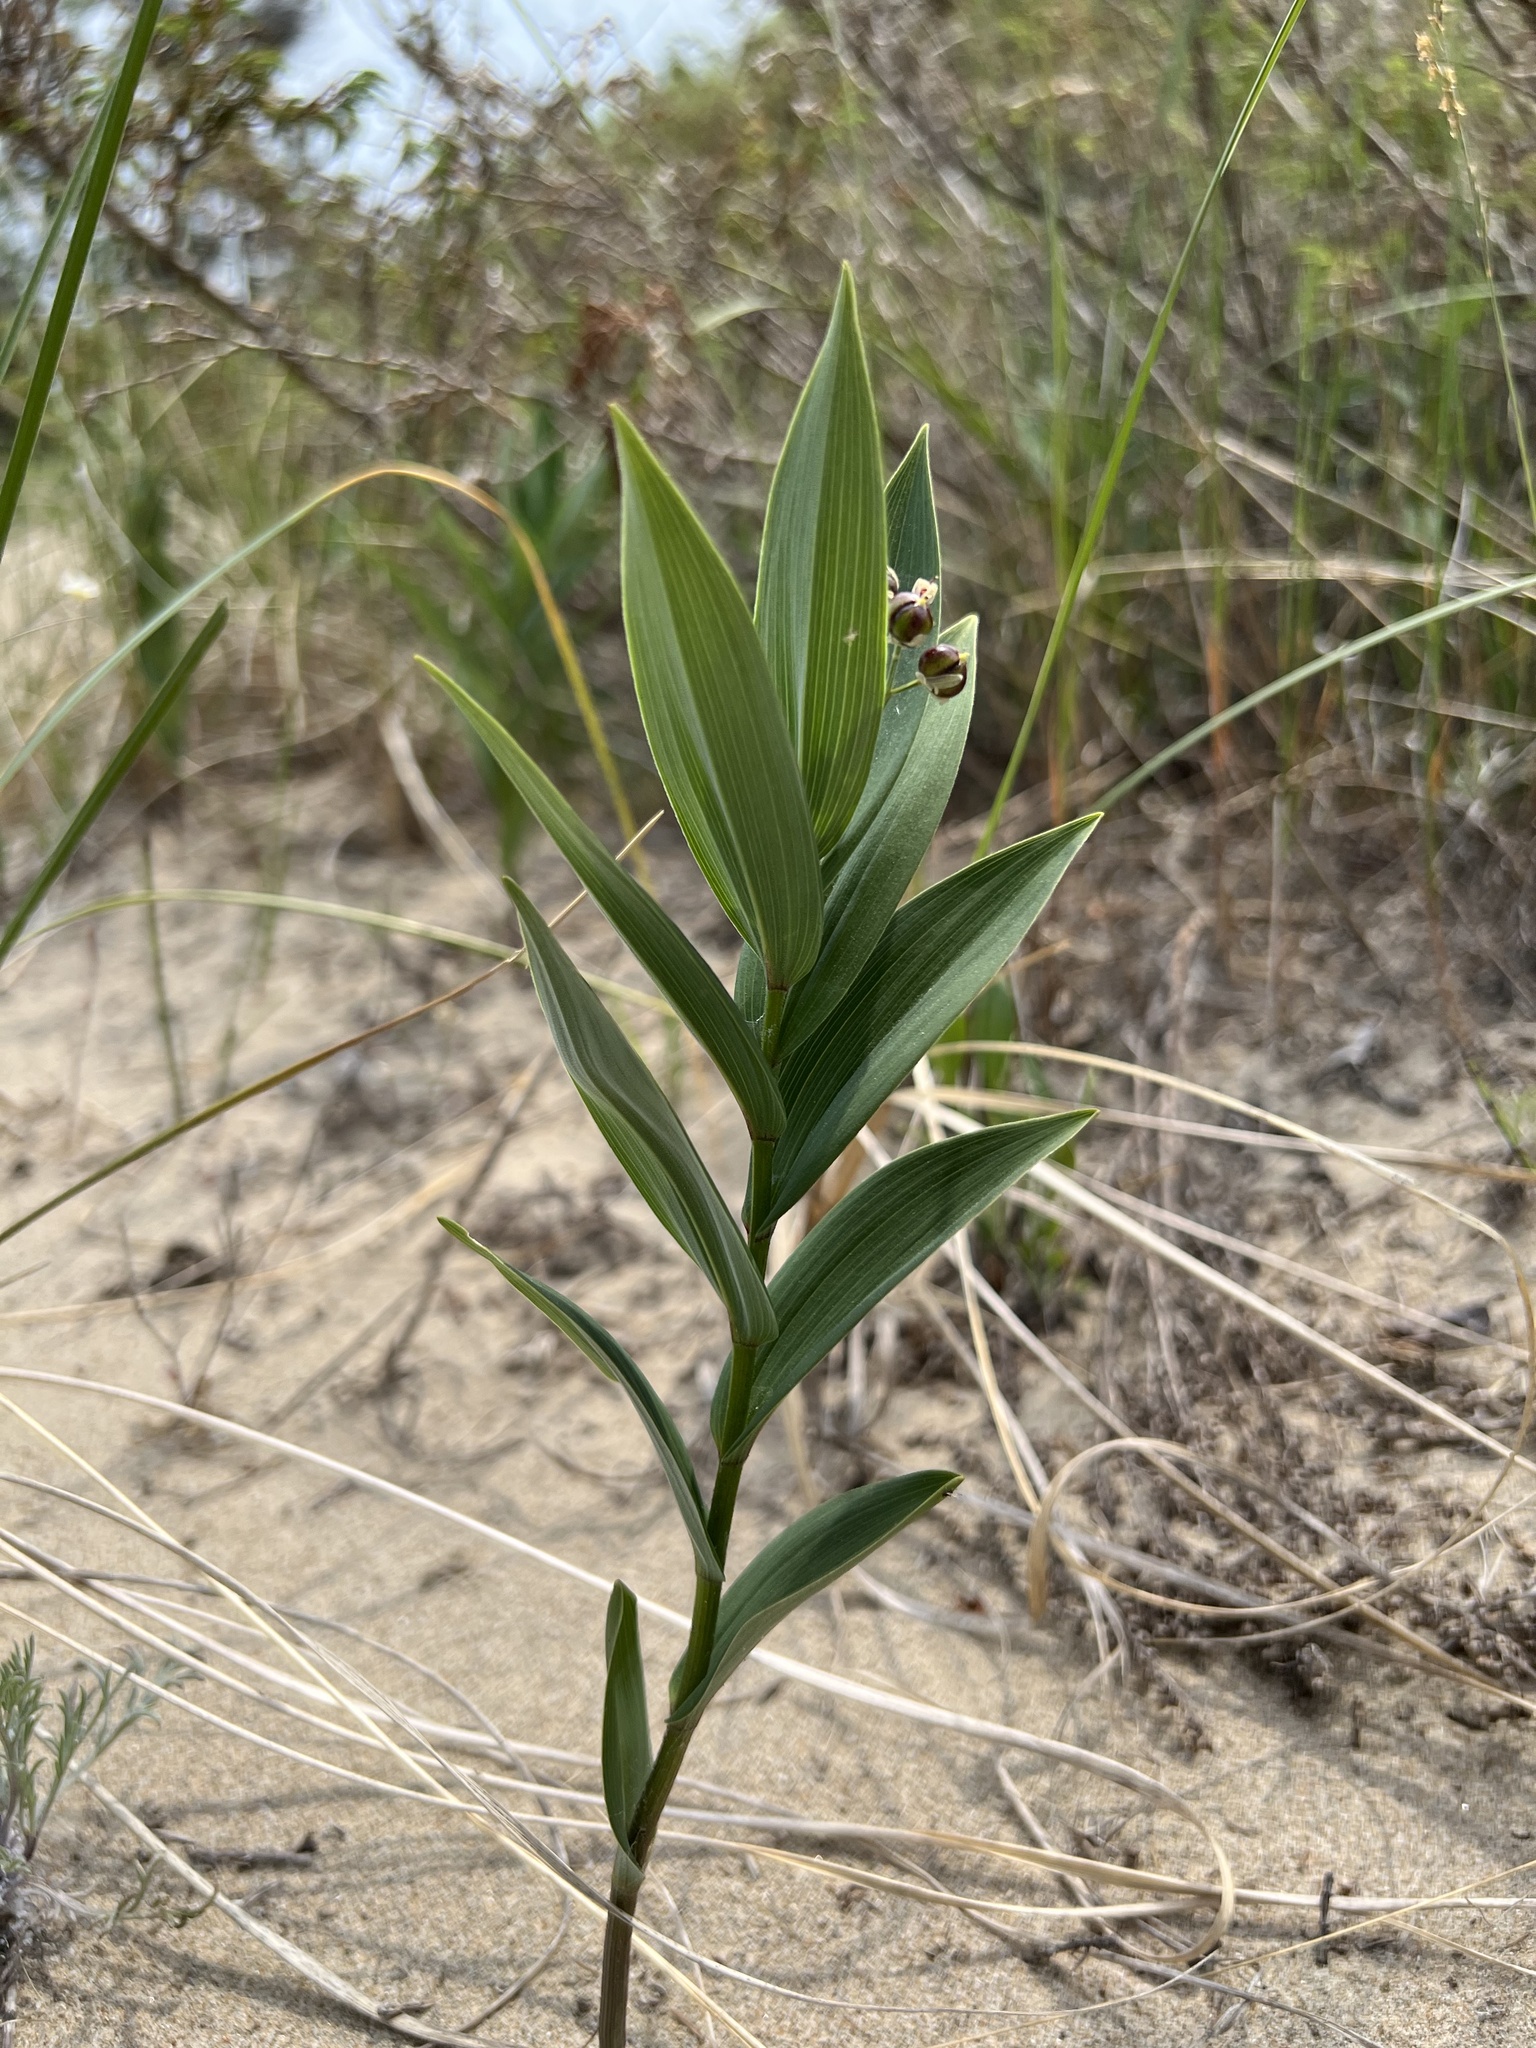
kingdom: Plantae
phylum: Tracheophyta
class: Liliopsida
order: Asparagales
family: Asparagaceae
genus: Maianthemum
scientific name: Maianthemum stellatum
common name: Little false solomon's seal
